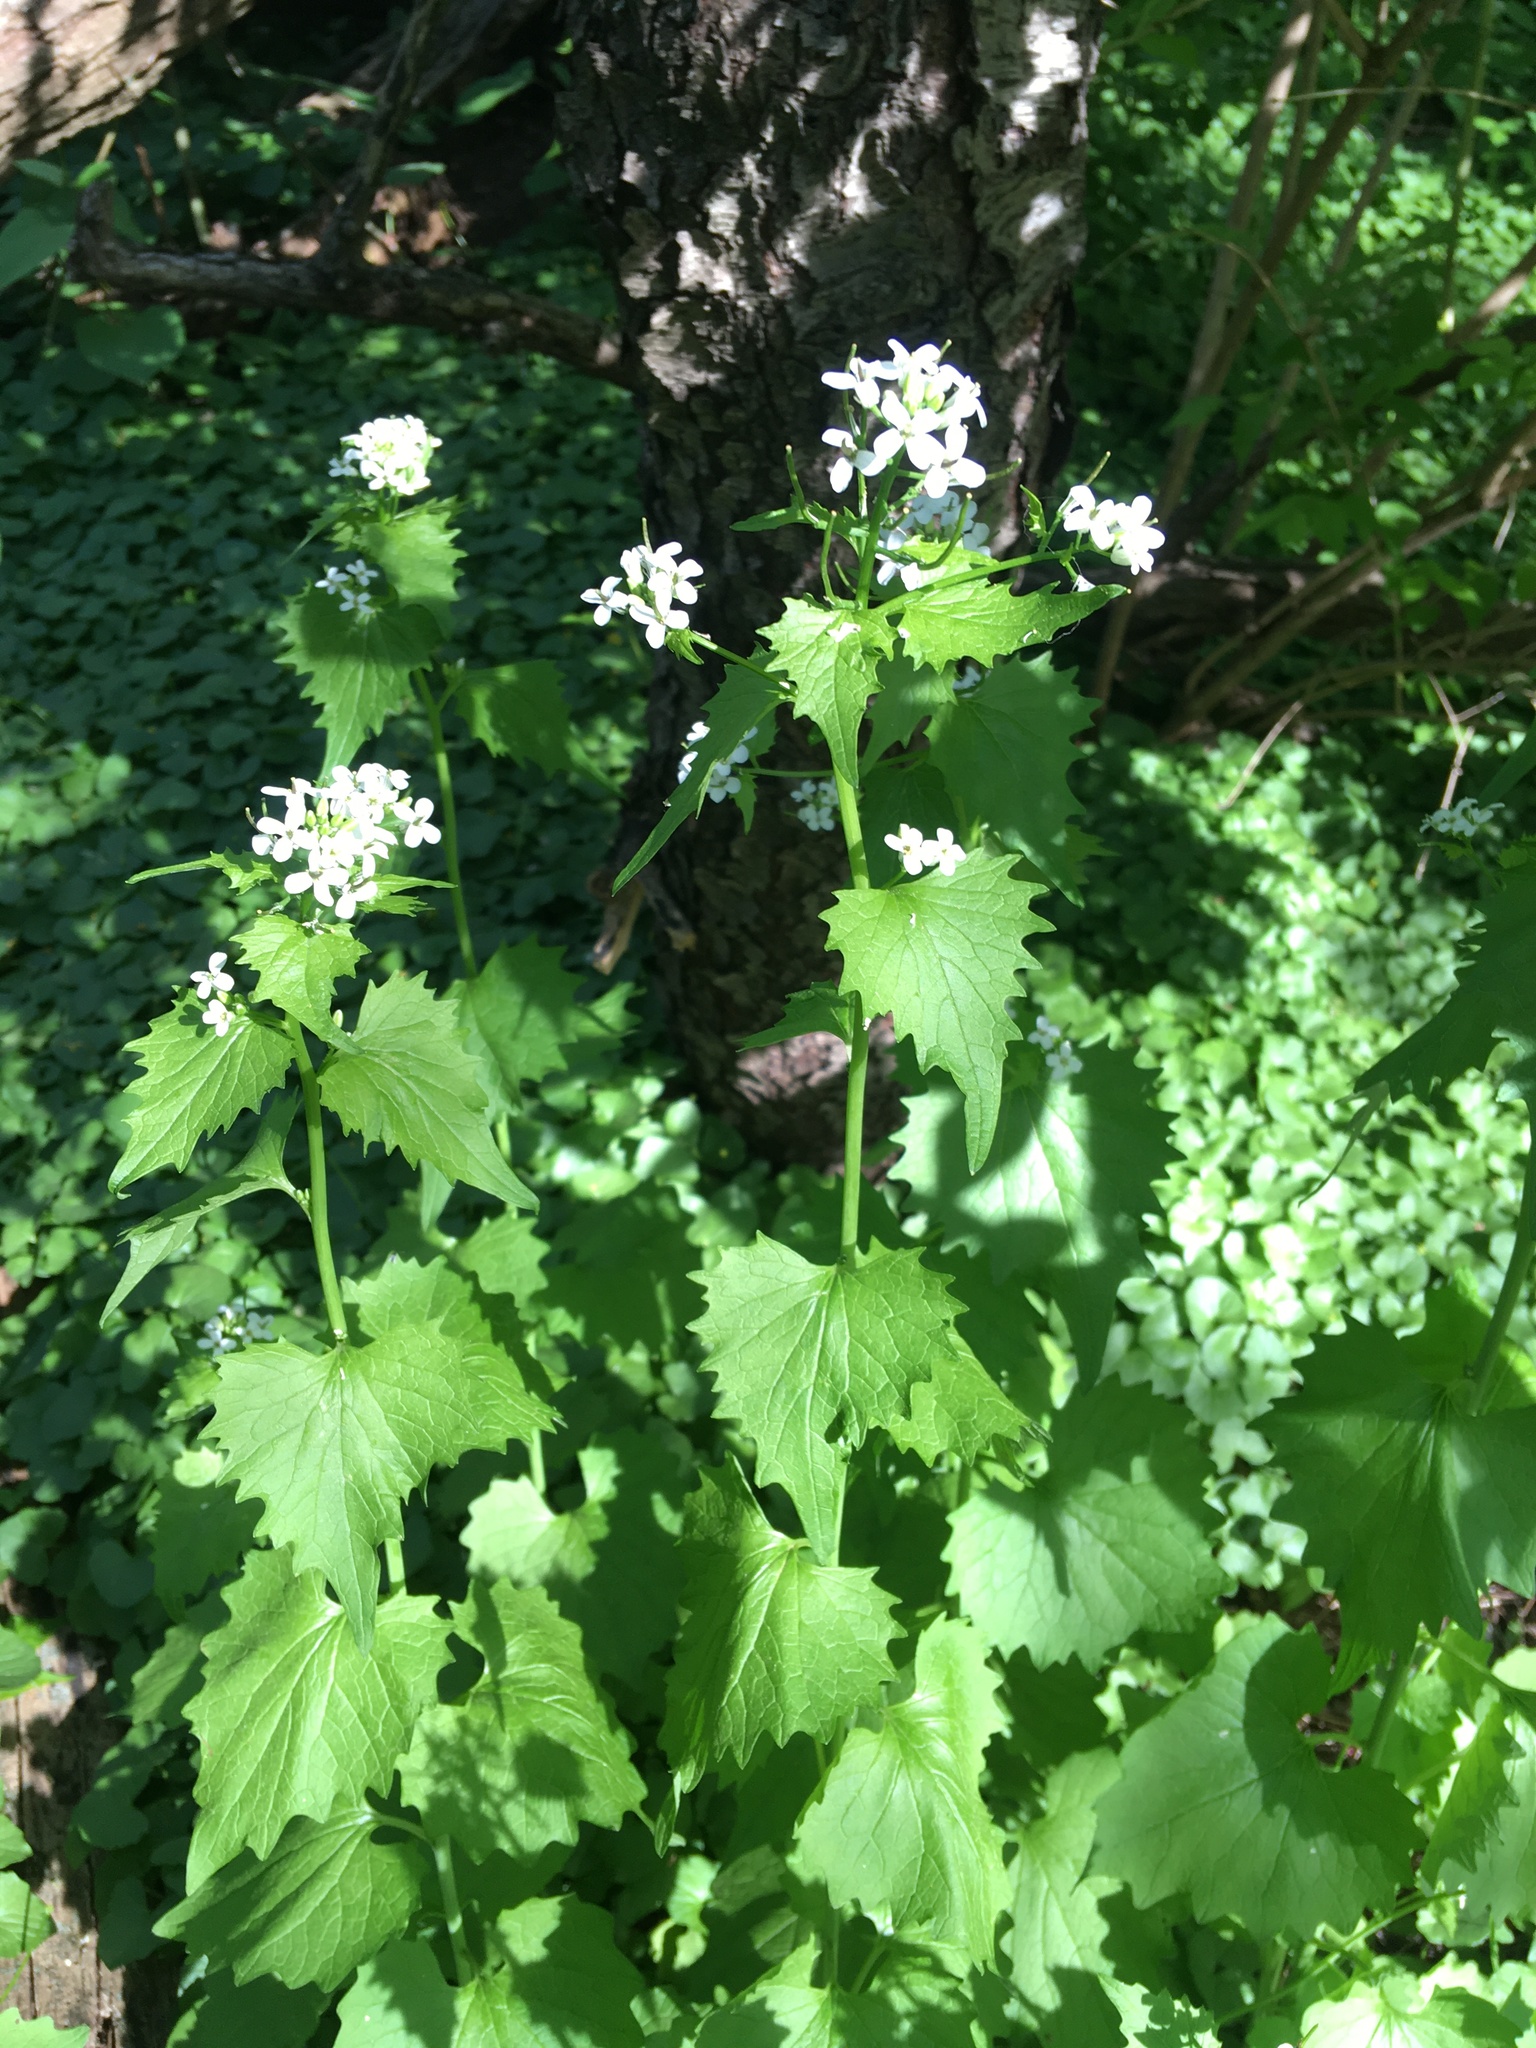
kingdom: Plantae
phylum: Tracheophyta
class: Magnoliopsida
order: Brassicales
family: Brassicaceae
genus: Alliaria
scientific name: Alliaria petiolata
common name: Garlic mustard
